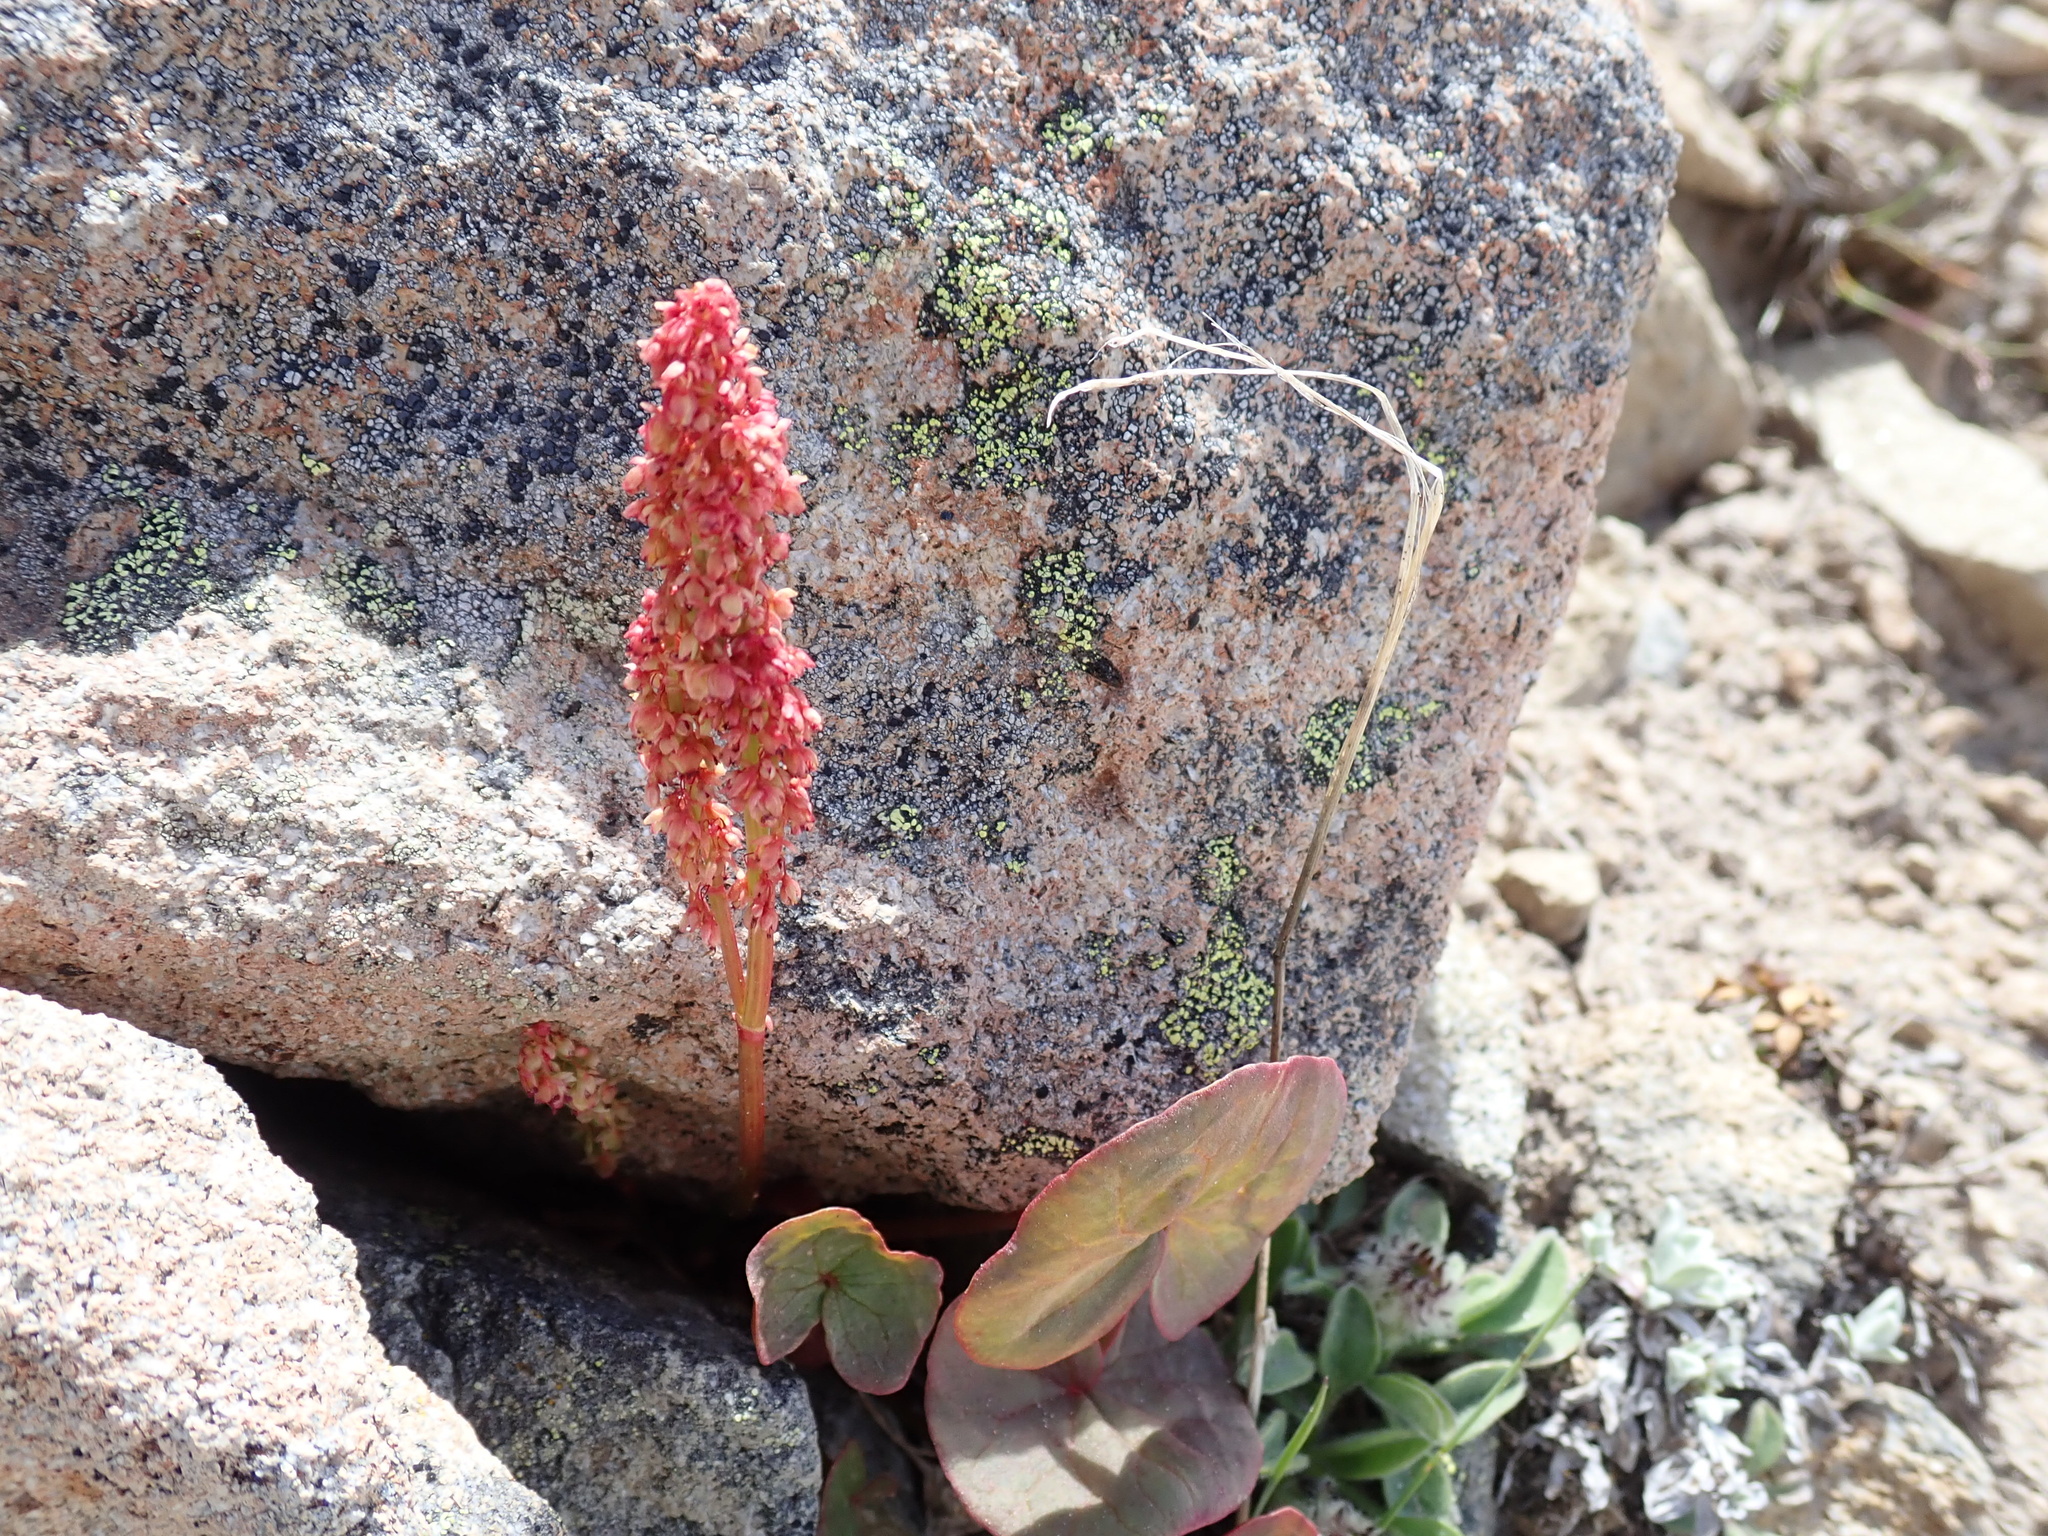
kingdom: Plantae
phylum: Tracheophyta
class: Magnoliopsida
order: Caryophyllales
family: Polygonaceae
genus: Oxyria
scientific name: Oxyria digyna
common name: Alpine mountain-sorrel
